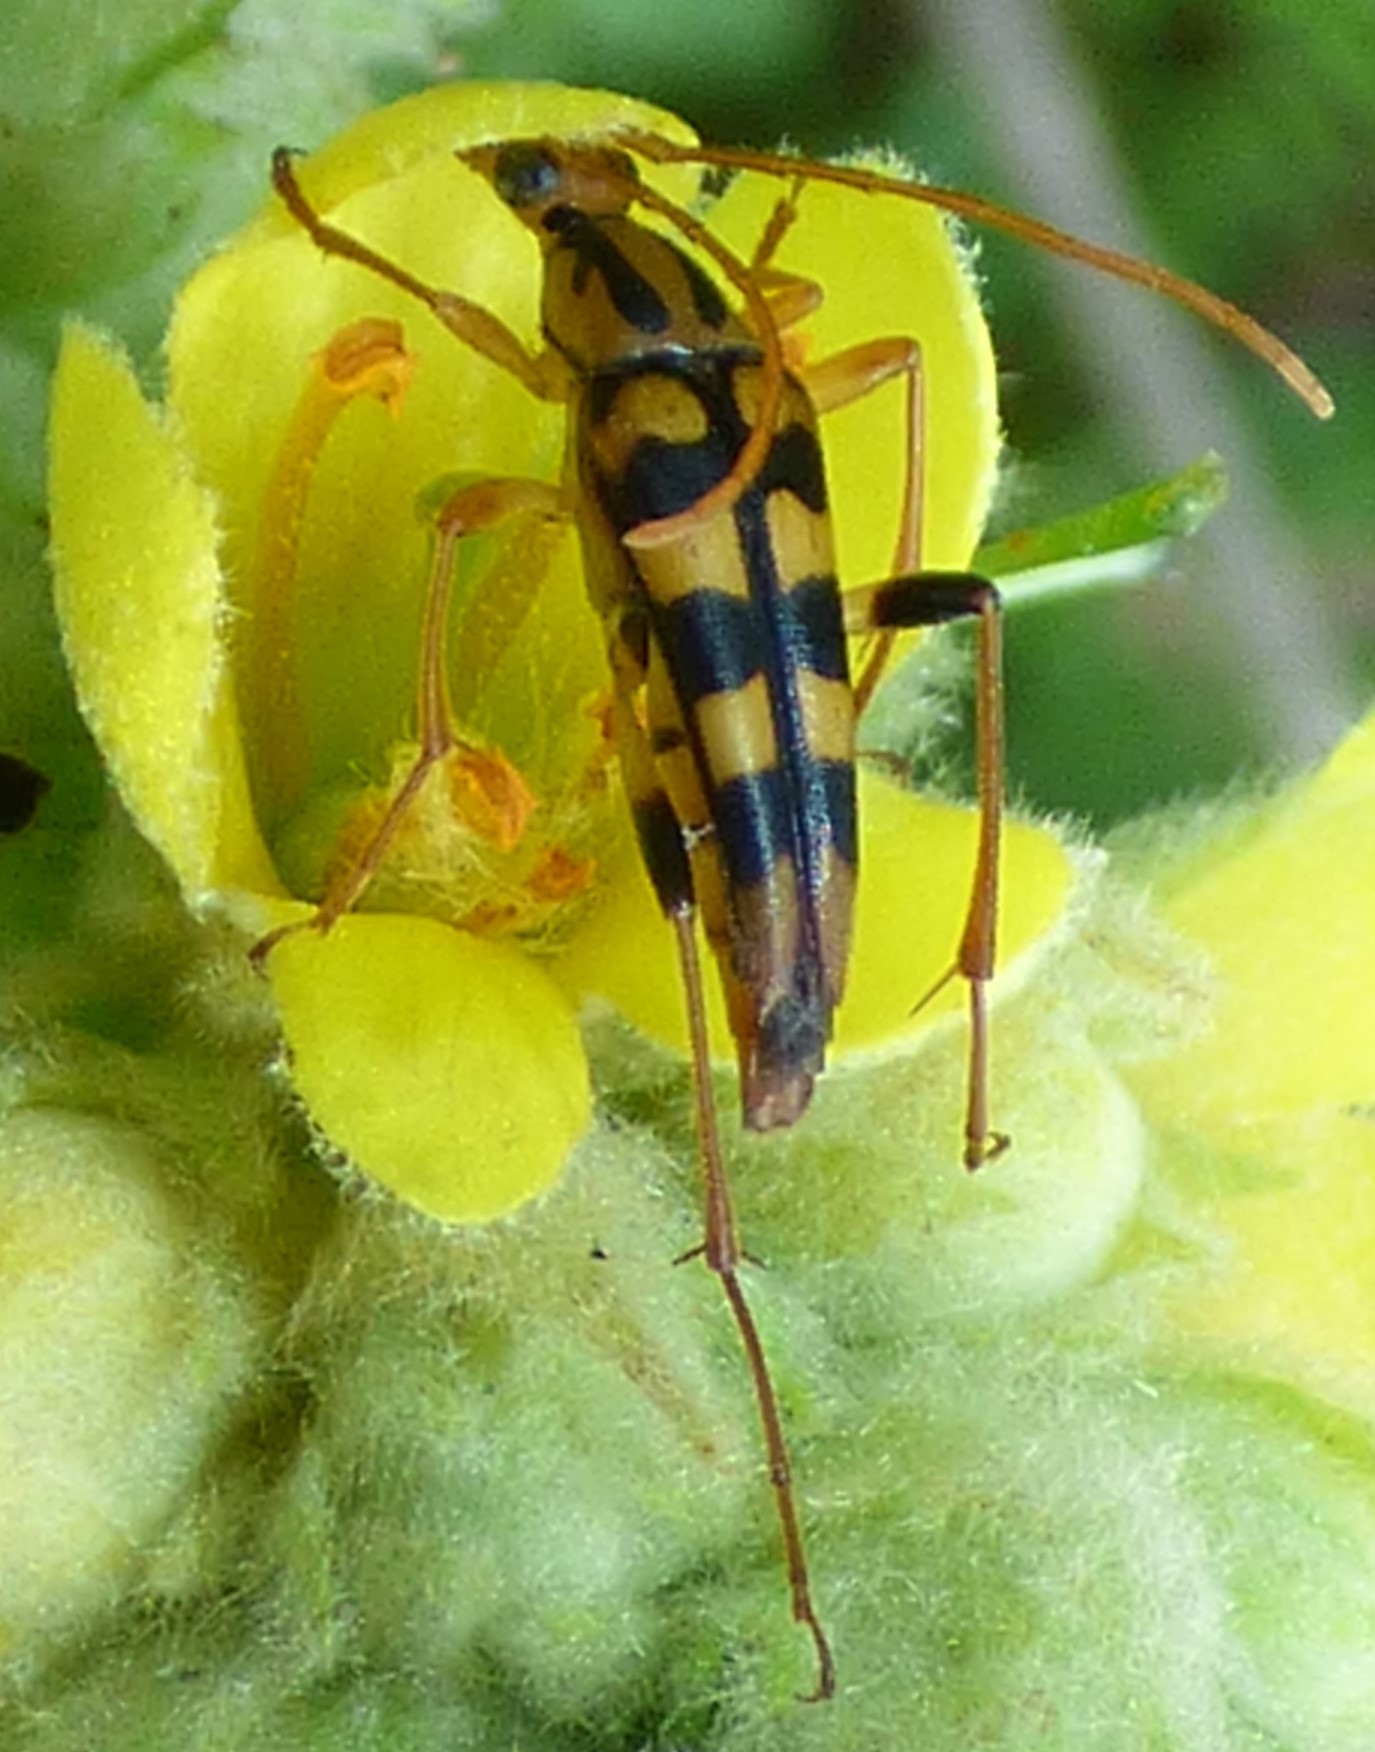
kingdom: Animalia
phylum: Arthropoda
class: Insecta
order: Coleoptera
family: Cerambycidae
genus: Strangalia
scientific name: Strangalia luteicornis
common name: Yellow-horned flower longhorn beetle
